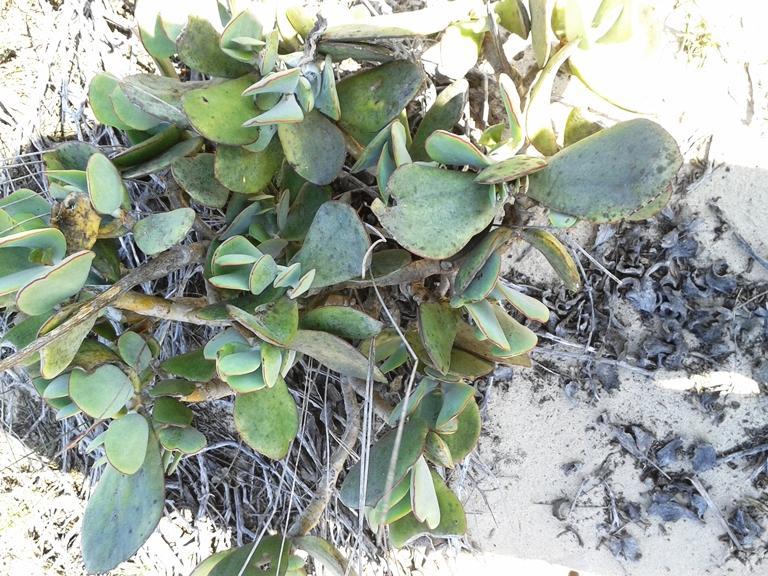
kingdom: Plantae
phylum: Tracheophyta
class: Magnoliopsida
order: Saxifragales
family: Crassulaceae
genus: Cotyledon
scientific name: Cotyledon orbiculata
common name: Pig's ear
